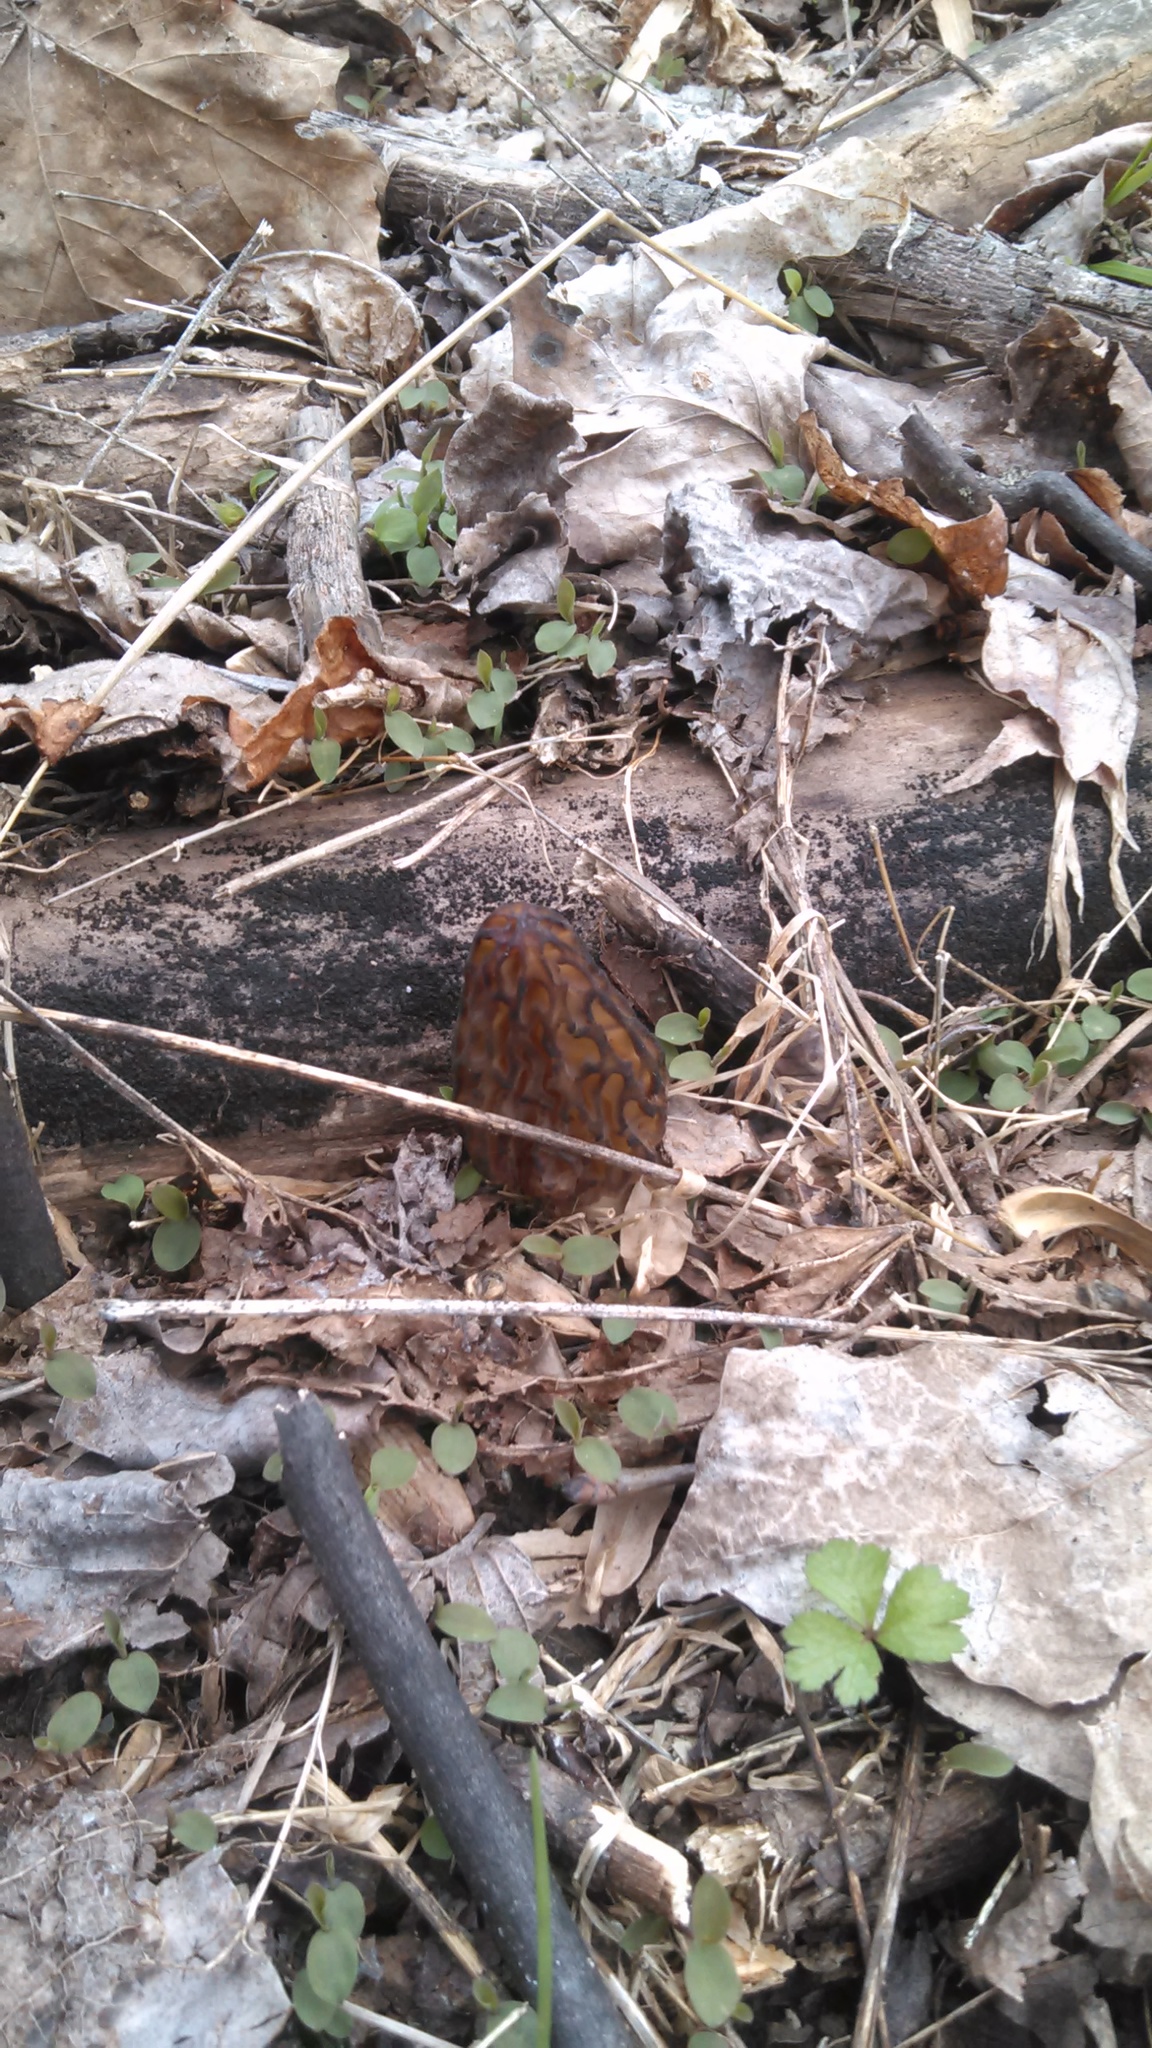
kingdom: Fungi
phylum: Ascomycota
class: Pezizomycetes
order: Pezizales
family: Morchellaceae
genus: Morchella
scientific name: Morchella angusticeps
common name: Black morel
